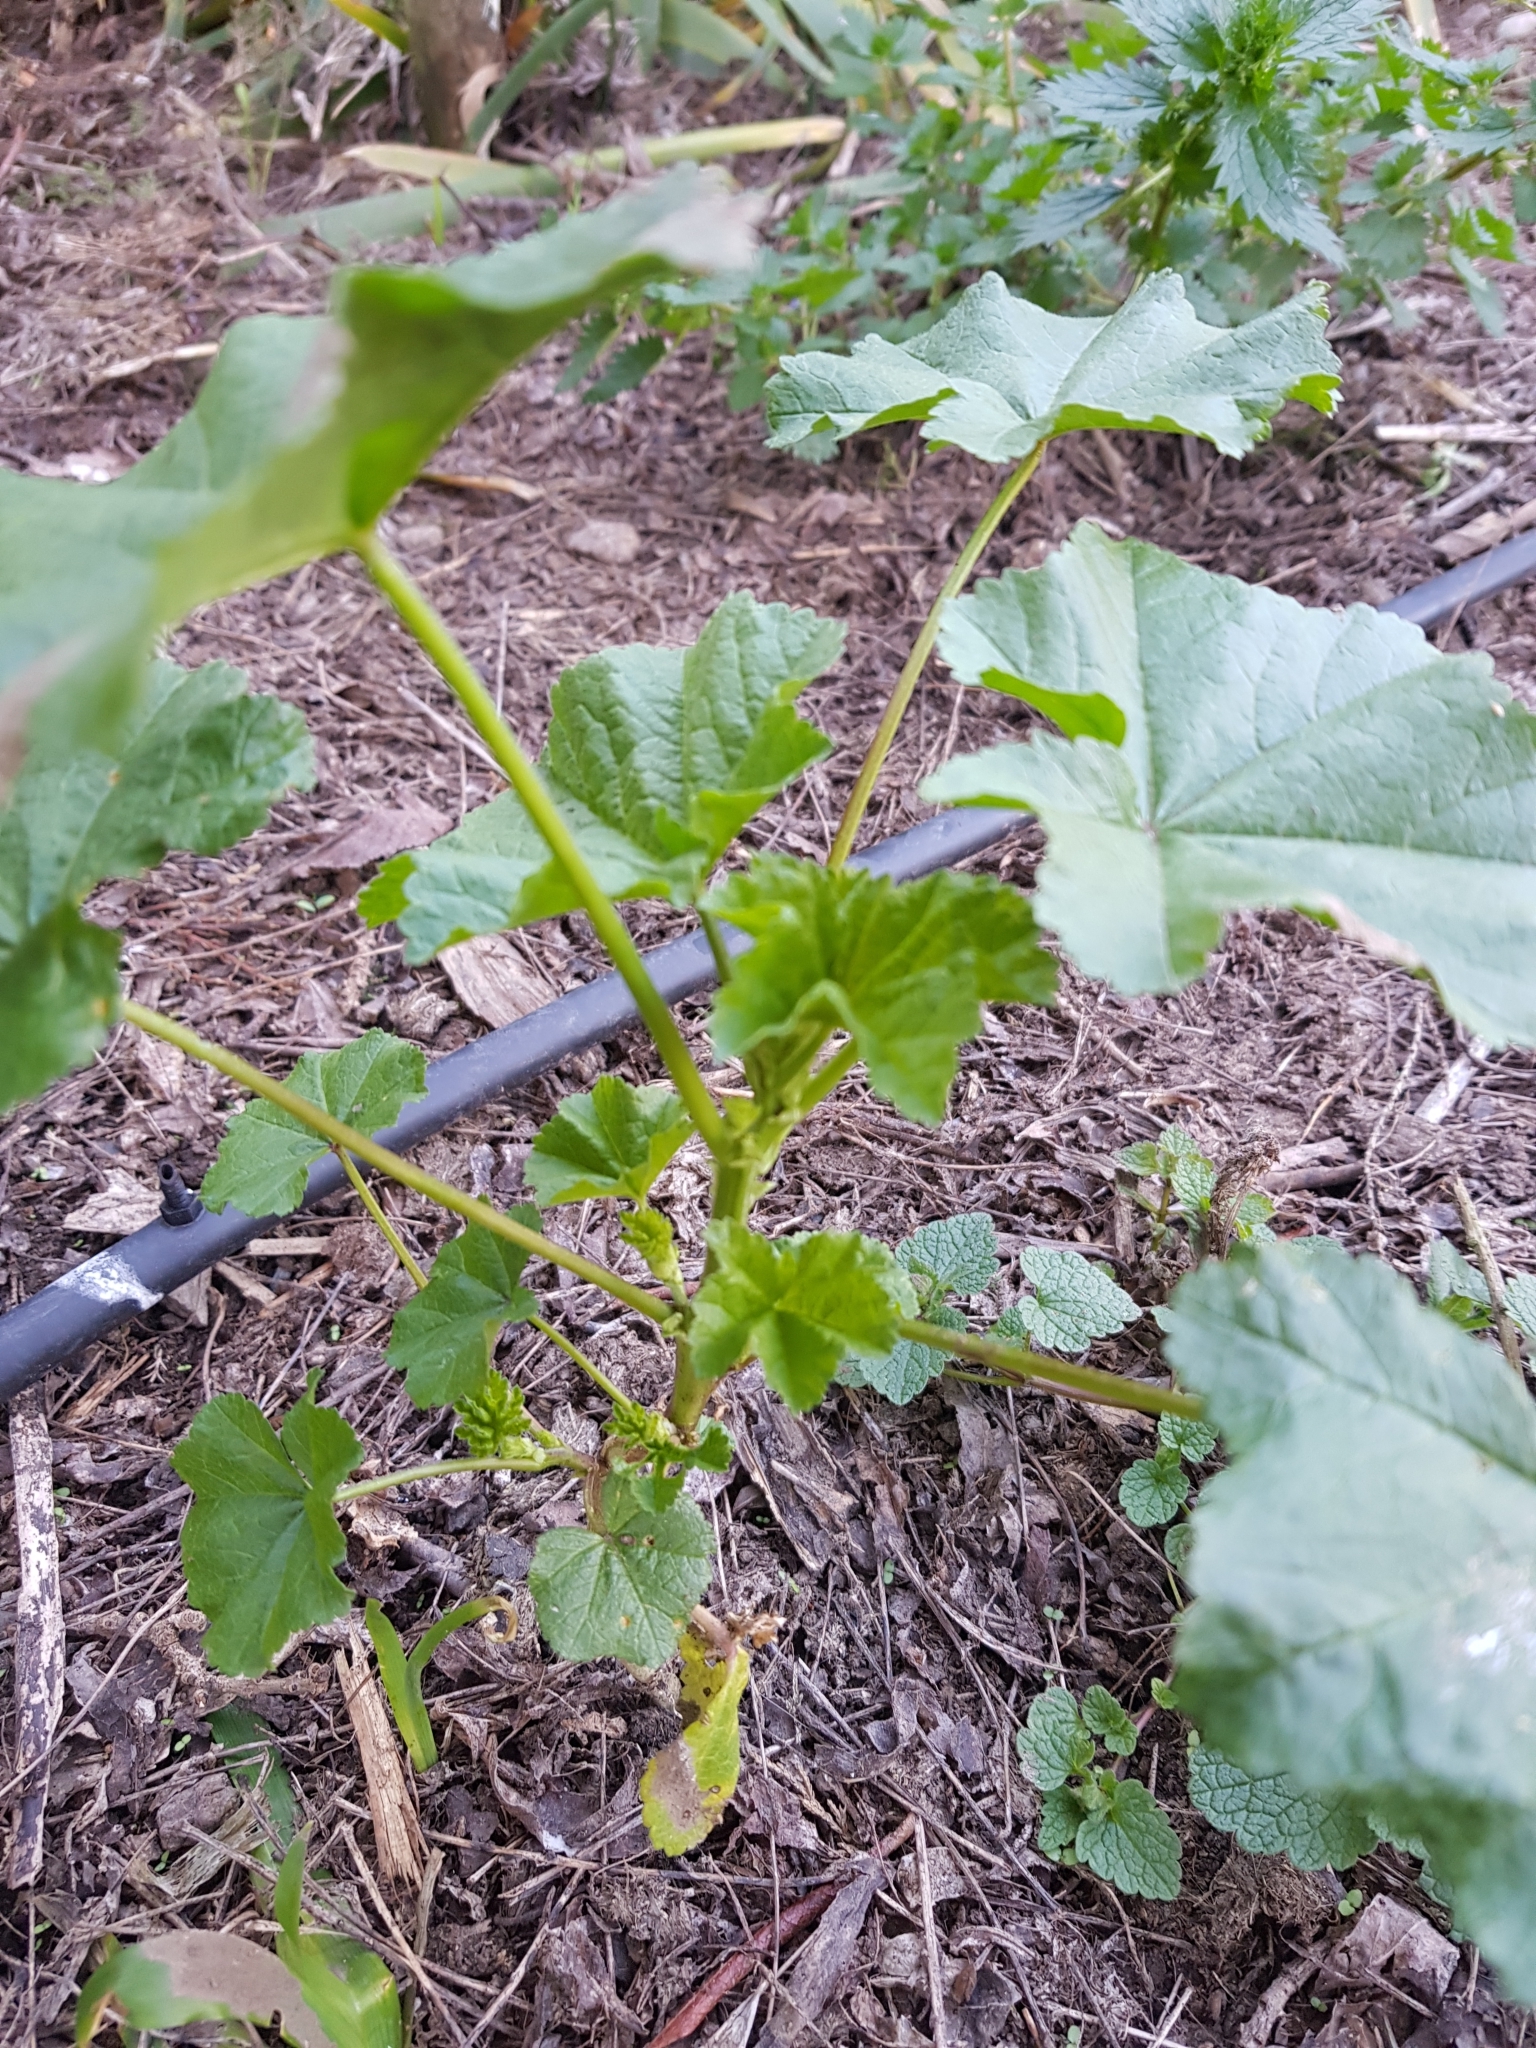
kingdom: Plantae
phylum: Tracheophyta
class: Magnoliopsida
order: Malvales
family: Malvaceae
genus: Malva
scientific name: Malva sylvestris
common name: Common mallow
